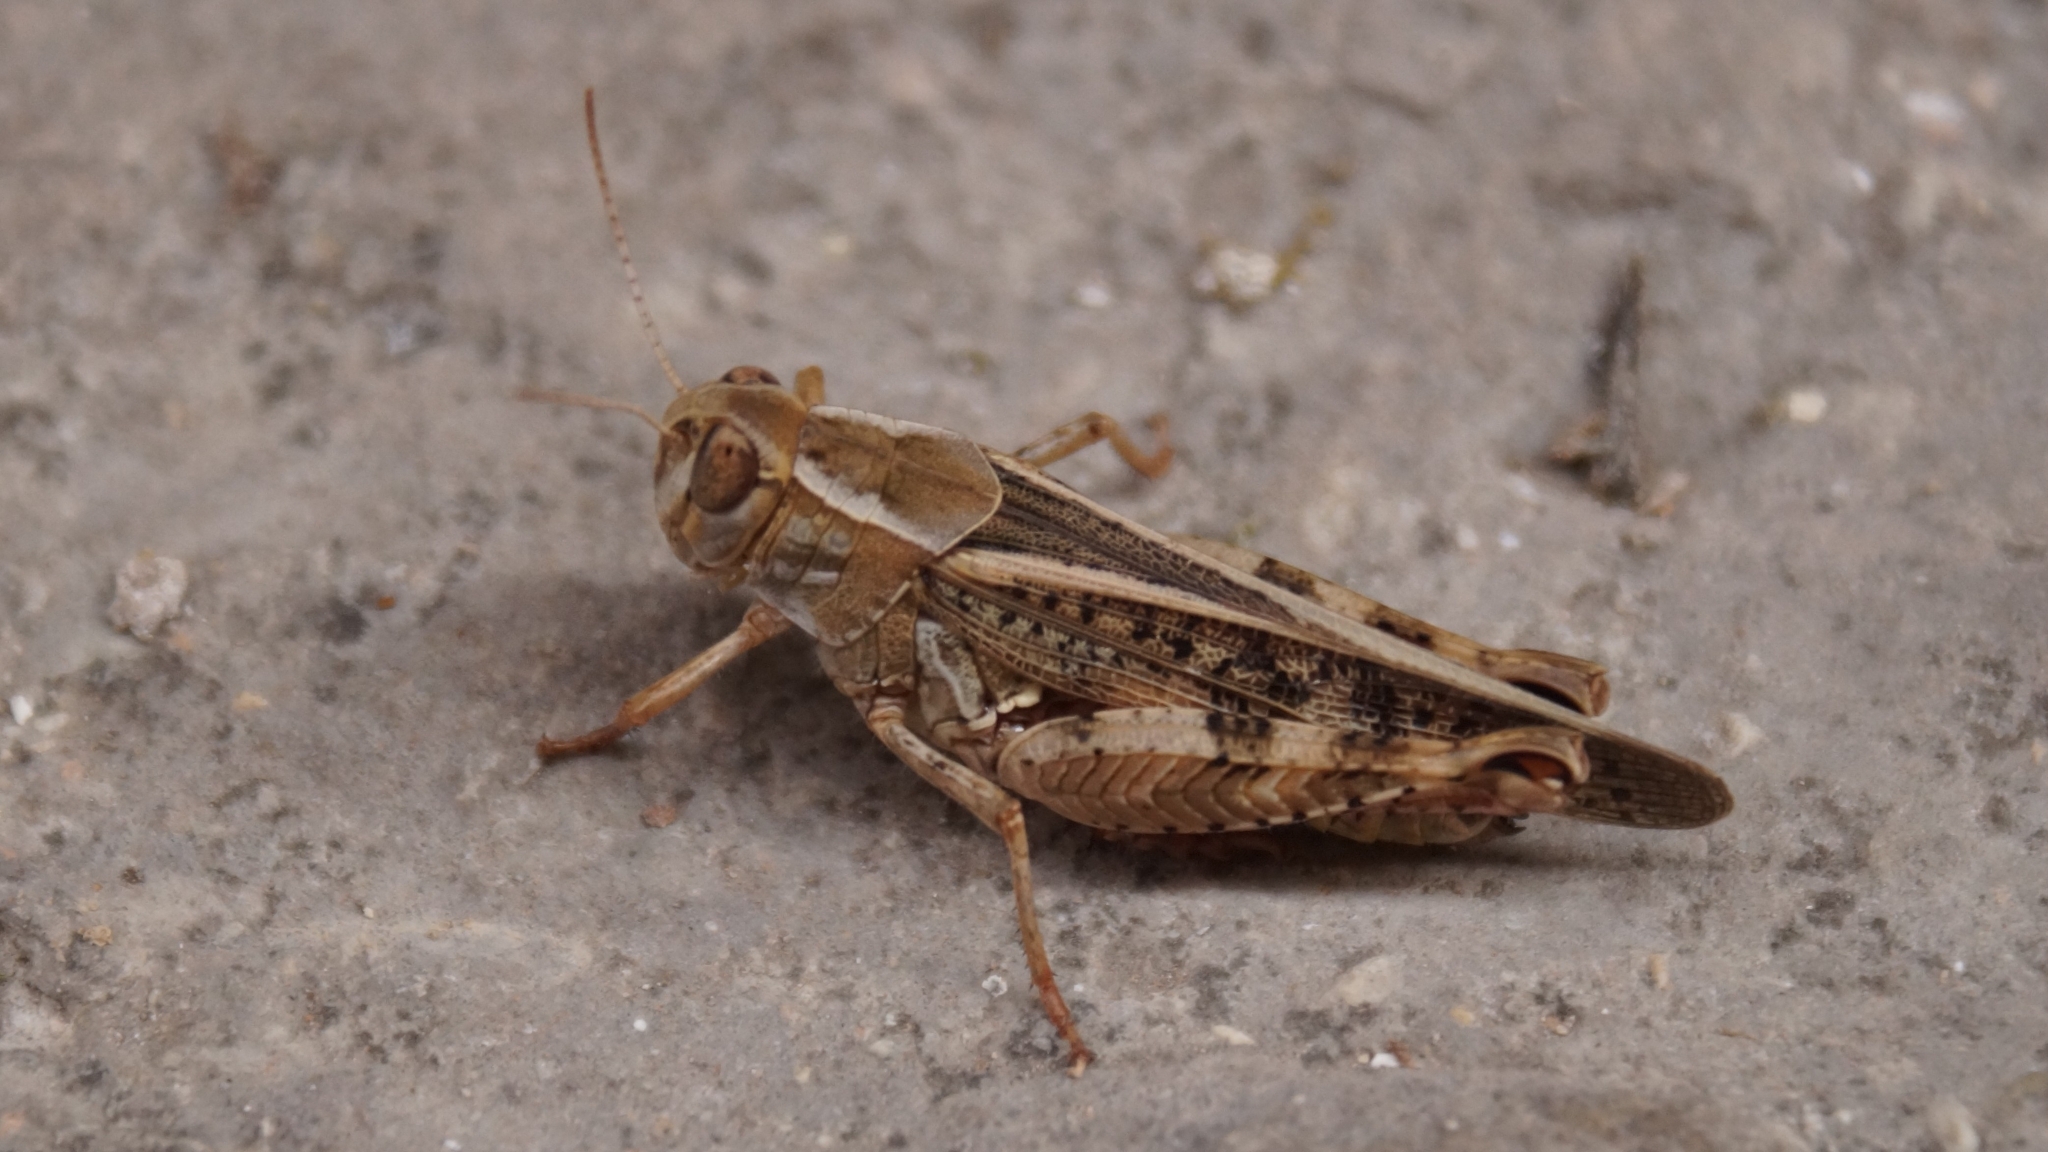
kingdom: Animalia
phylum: Arthropoda
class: Insecta
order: Orthoptera
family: Acrididae
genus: Calliptamus
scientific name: Calliptamus italicus
